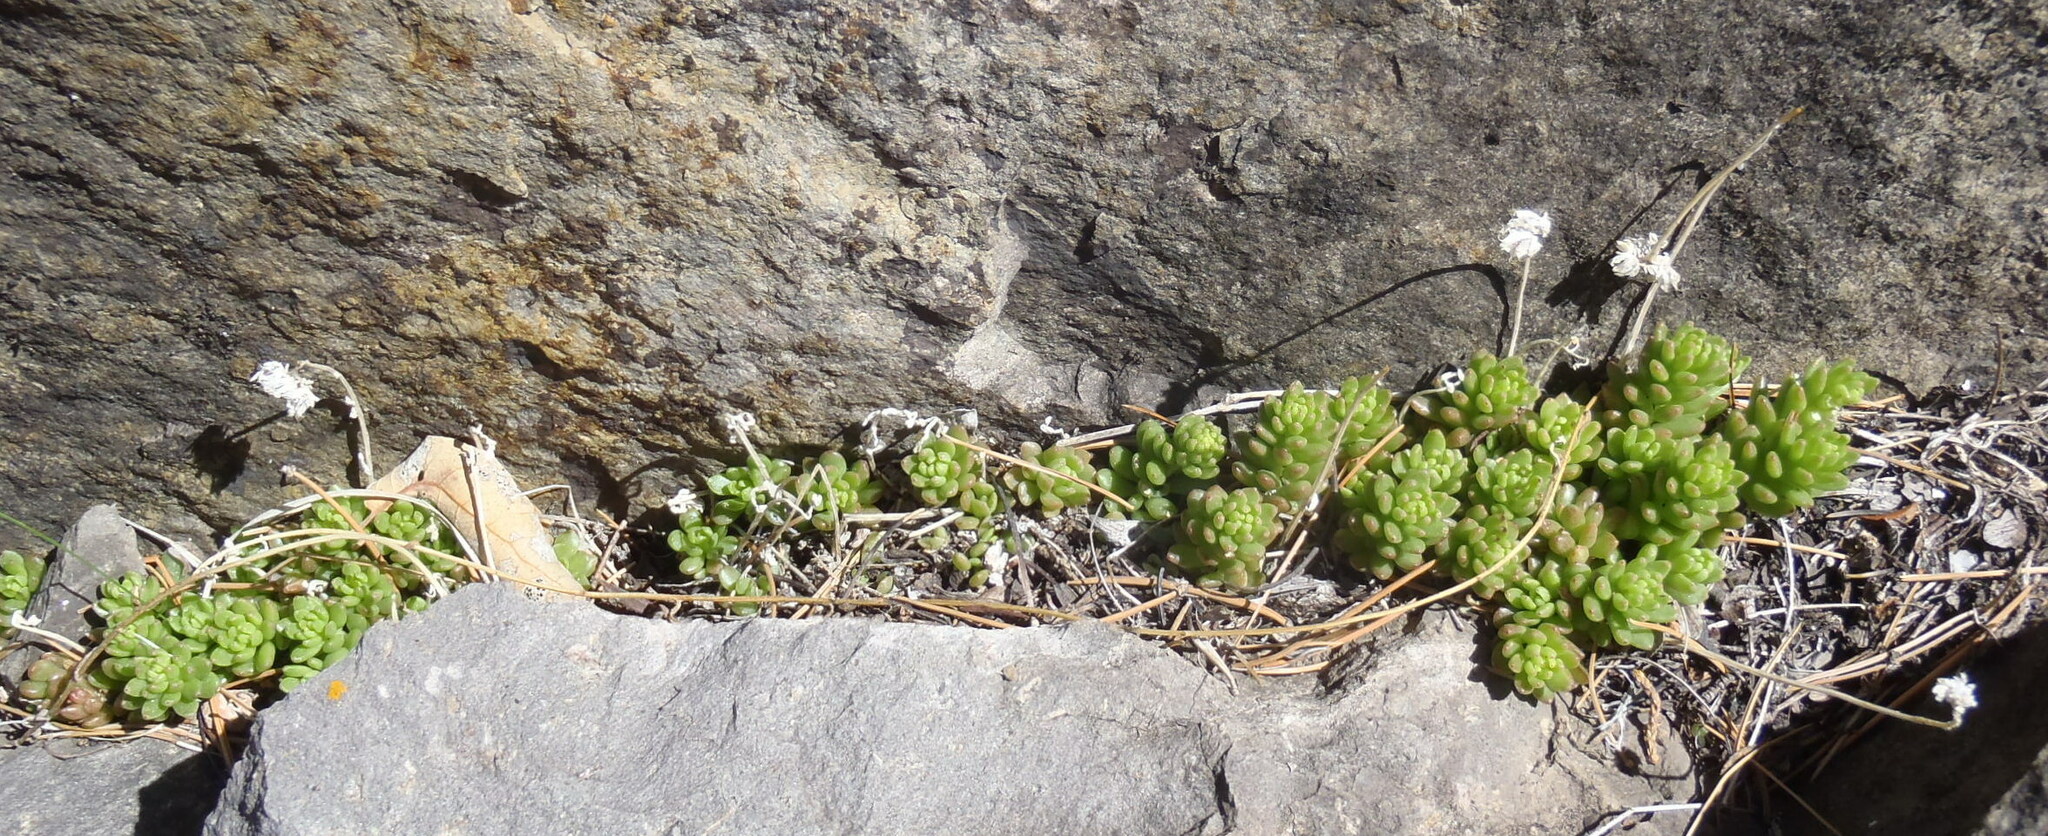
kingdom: Plantae
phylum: Tracheophyta
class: Magnoliopsida
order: Saxifragales
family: Crassulaceae
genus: Sedum
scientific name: Sedum wrightii
